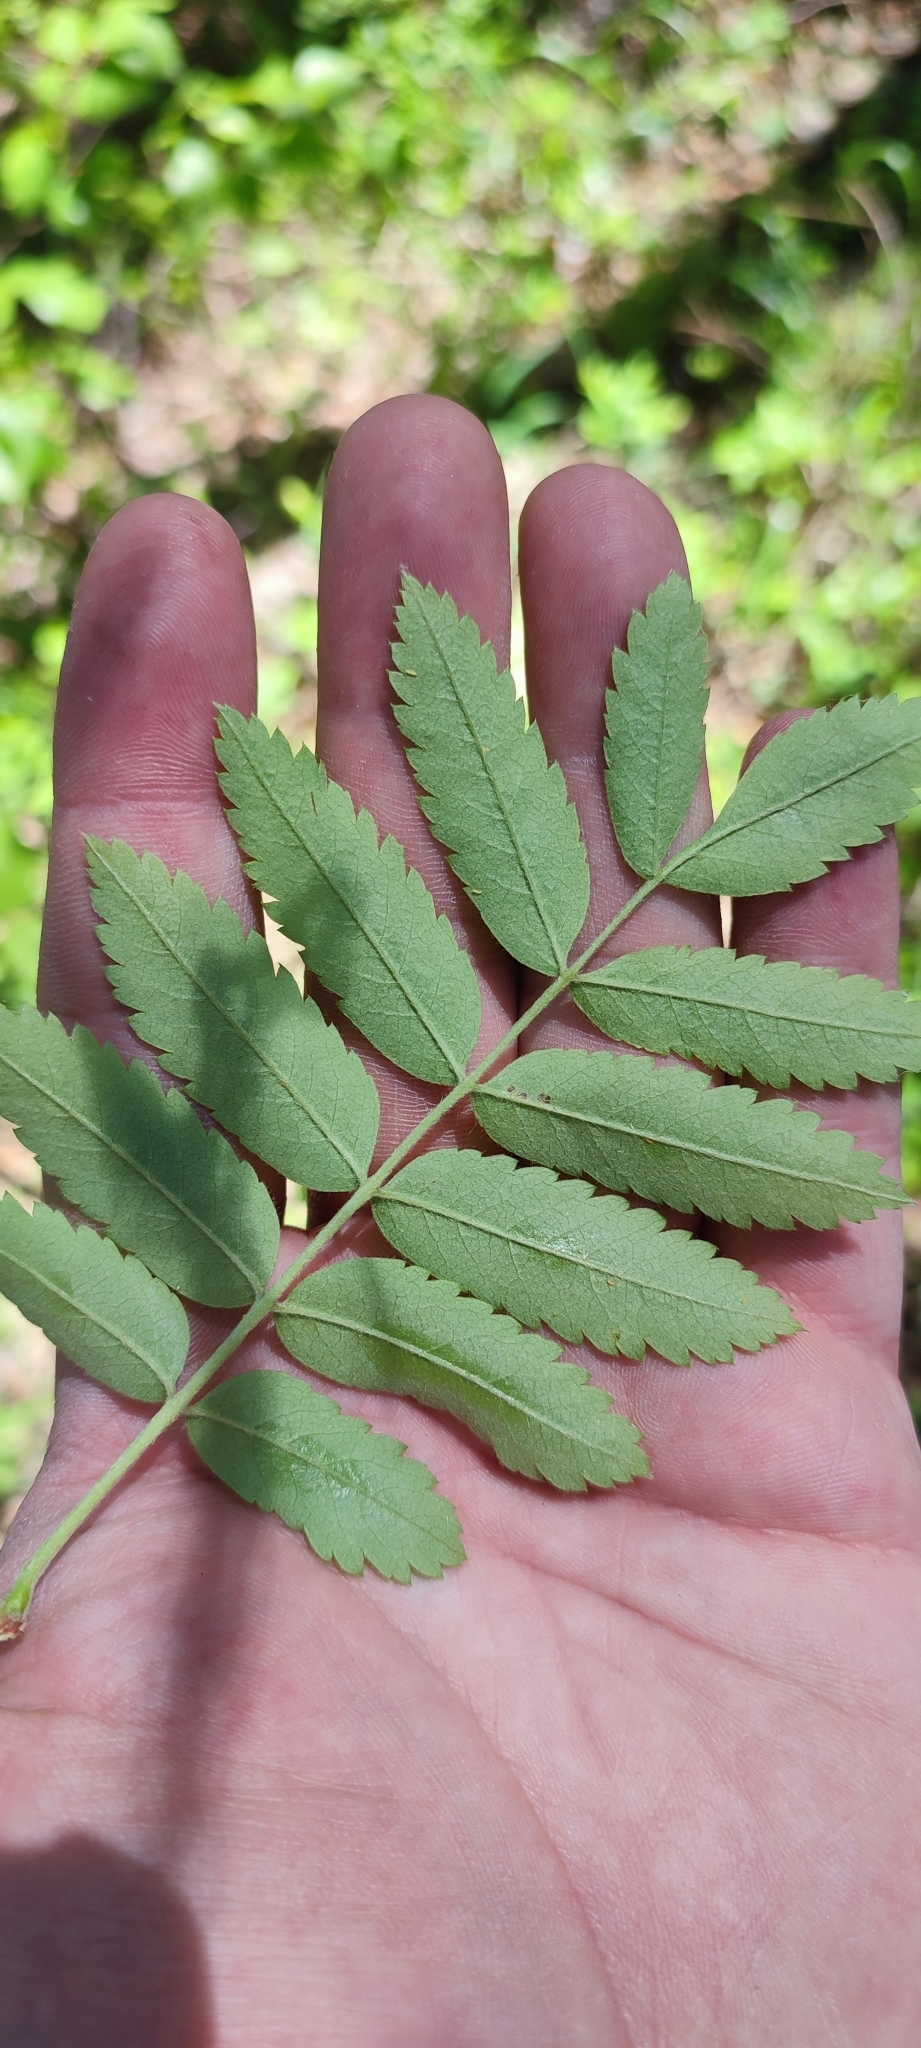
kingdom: Plantae
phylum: Tracheophyta
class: Magnoliopsida
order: Rosales
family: Rosaceae
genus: Sorbus
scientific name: Sorbus aucuparia
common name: Rowan
